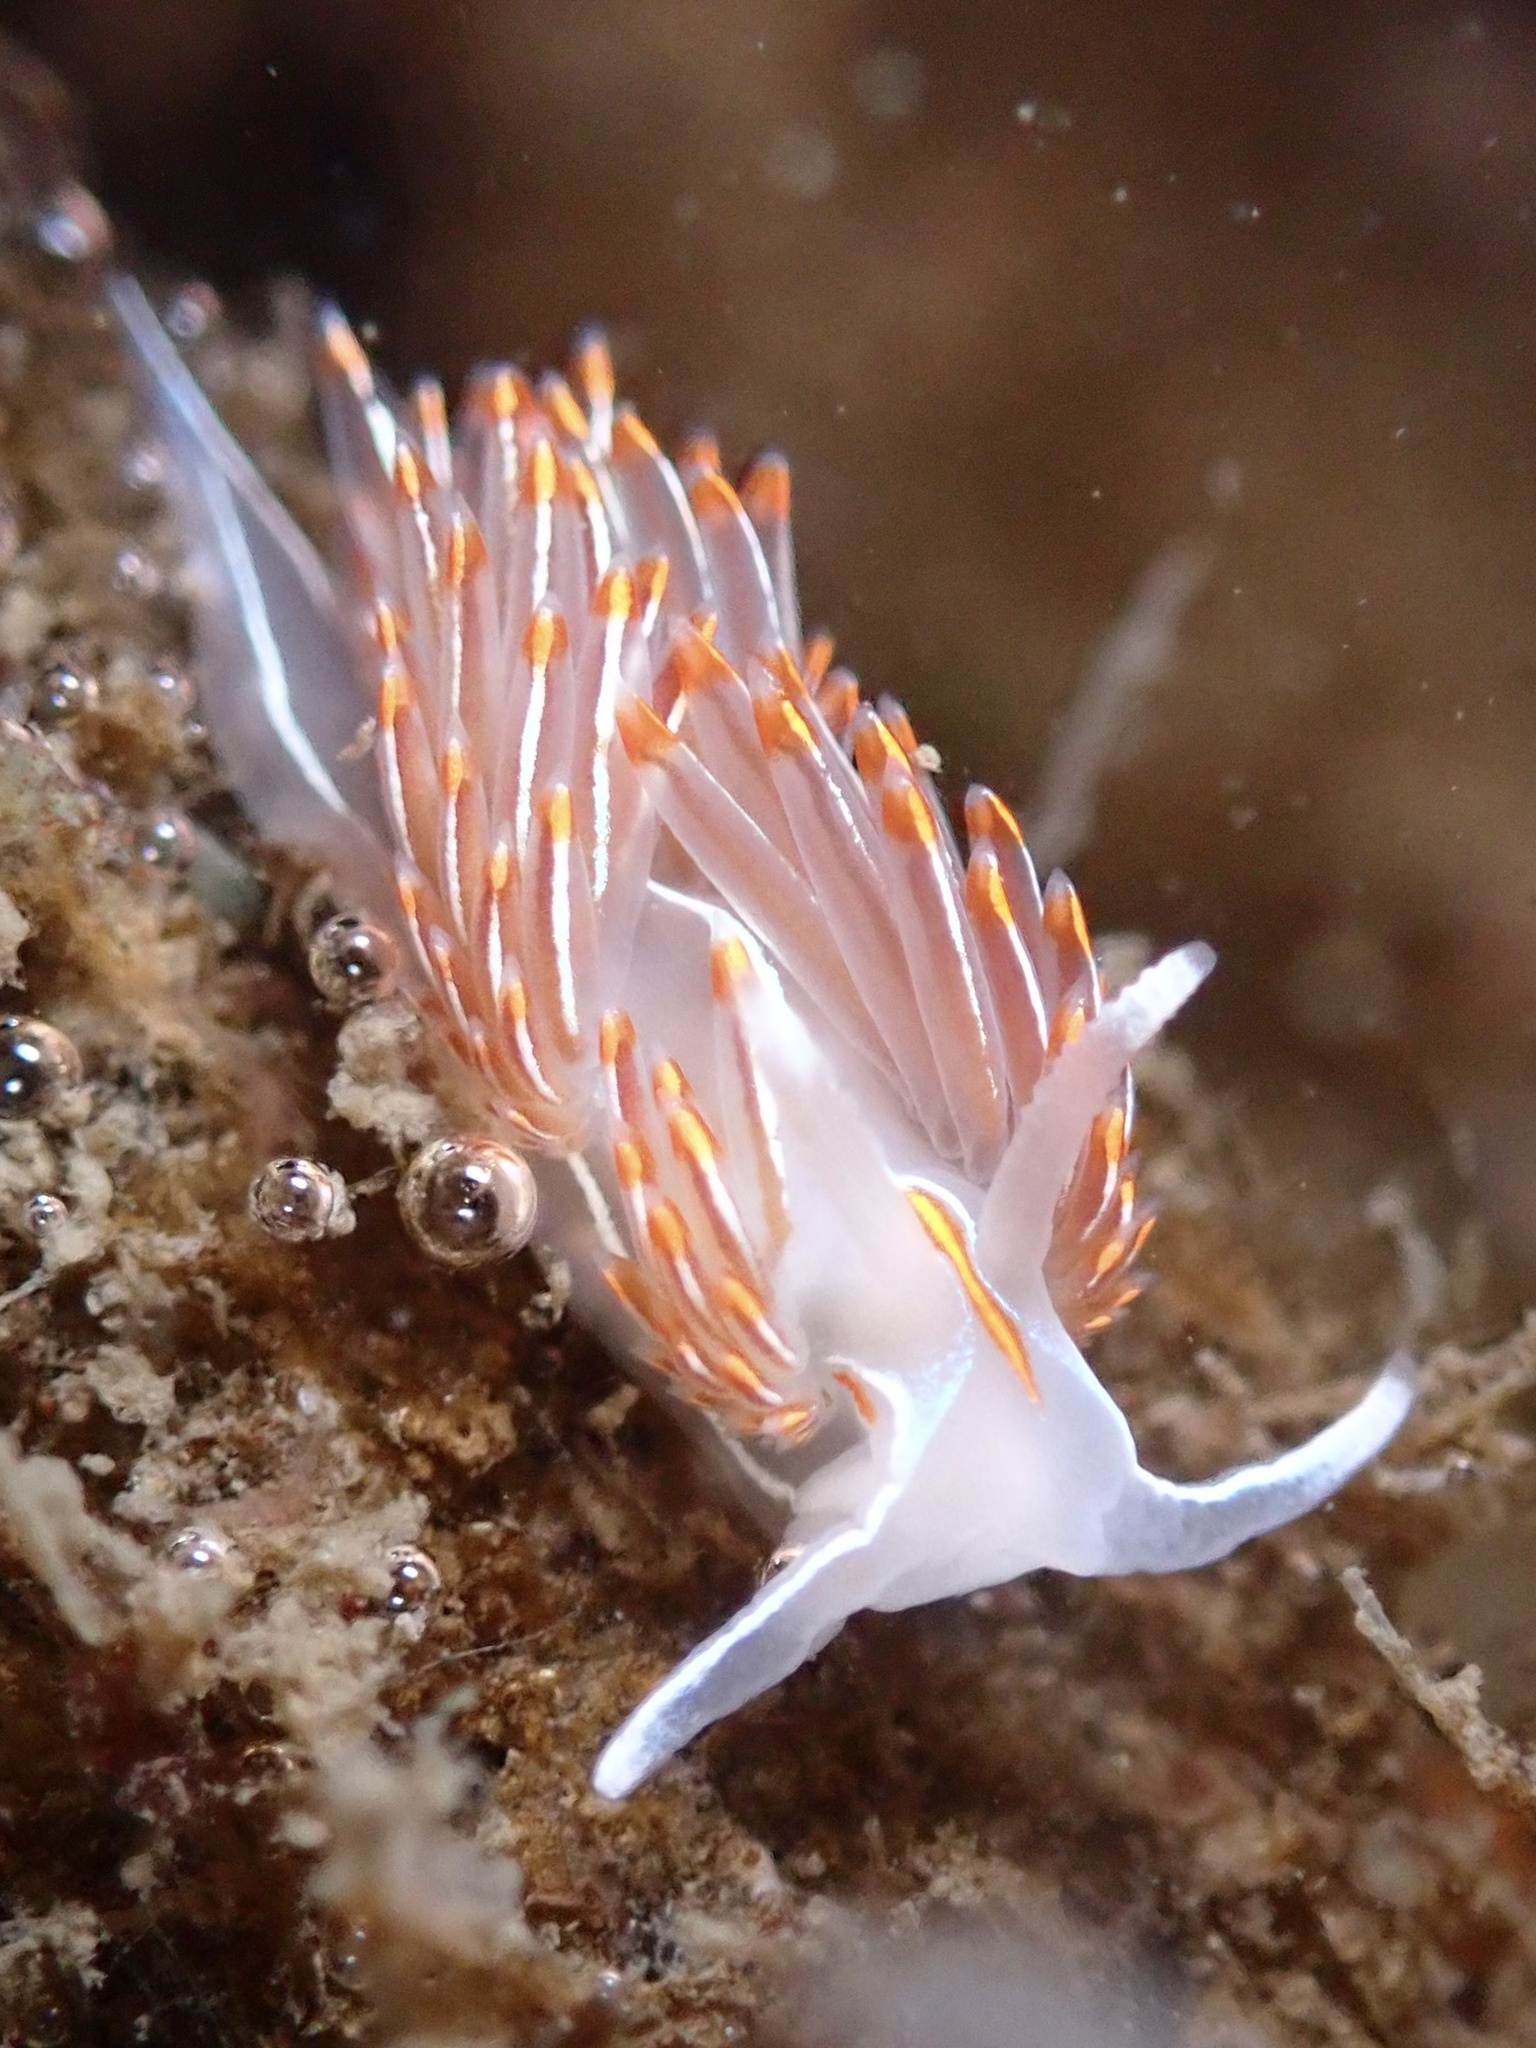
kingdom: Animalia
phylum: Mollusca
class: Gastropoda
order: Nudibranchia
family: Myrrhinidae
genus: Hermissenda
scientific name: Hermissenda crassicornis
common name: Hermissenda
